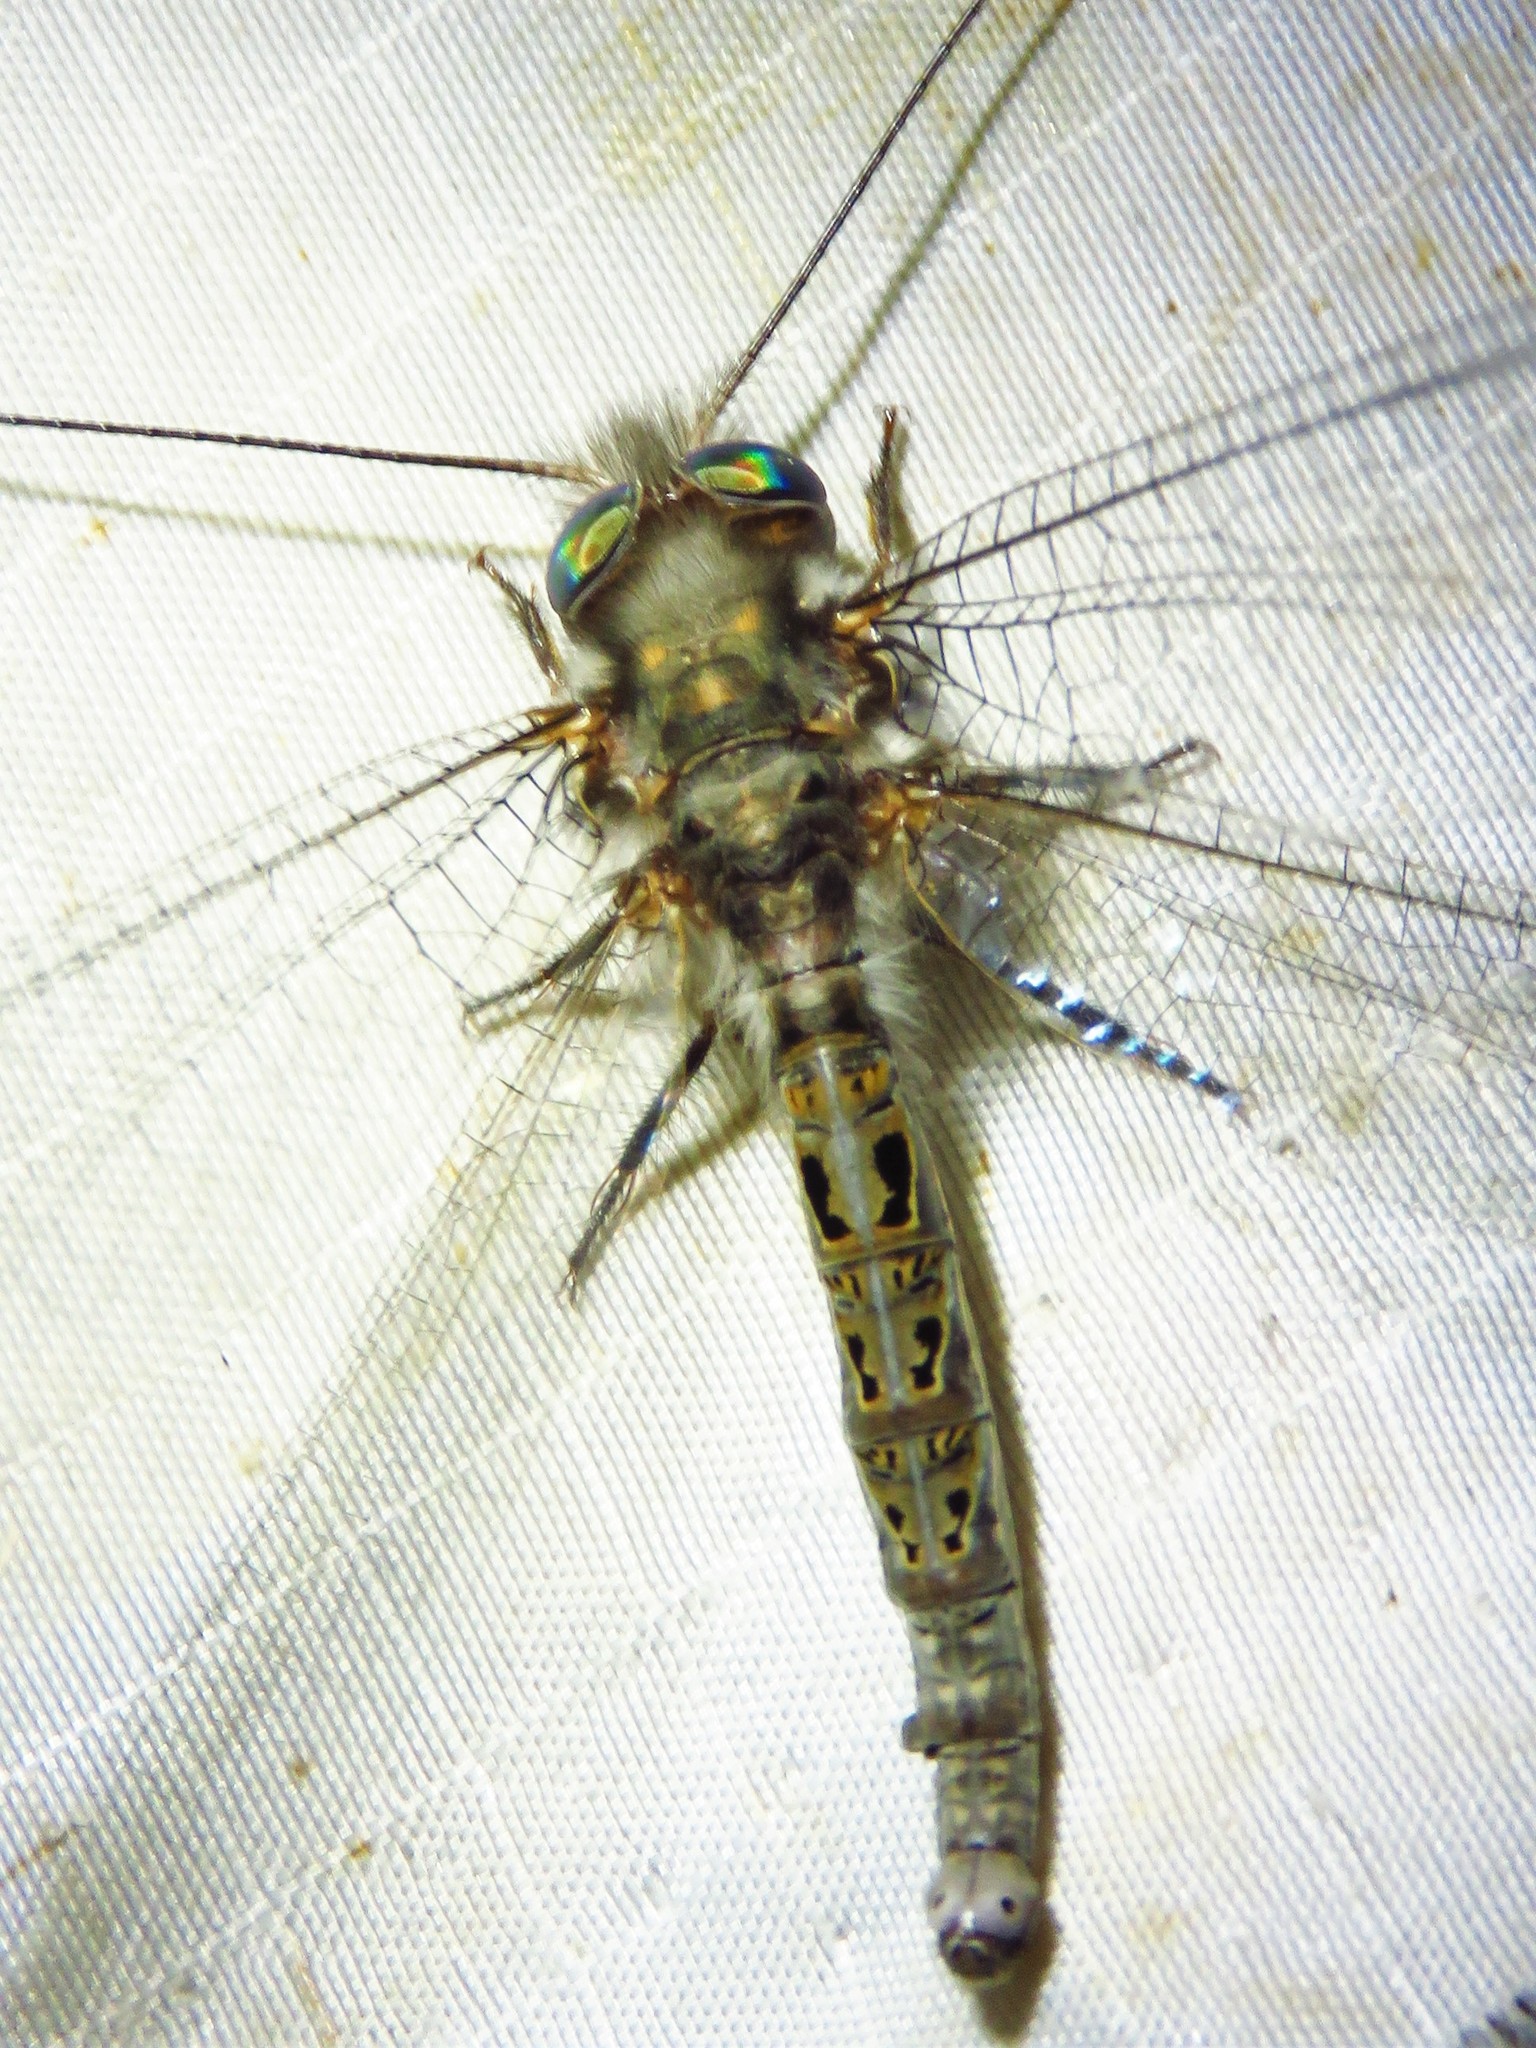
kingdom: Animalia
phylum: Arthropoda
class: Insecta
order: Neuroptera
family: Ascalaphidae
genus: Ululodes
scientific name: Ululodes quadripunctatus
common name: Four-spotted owlfly
